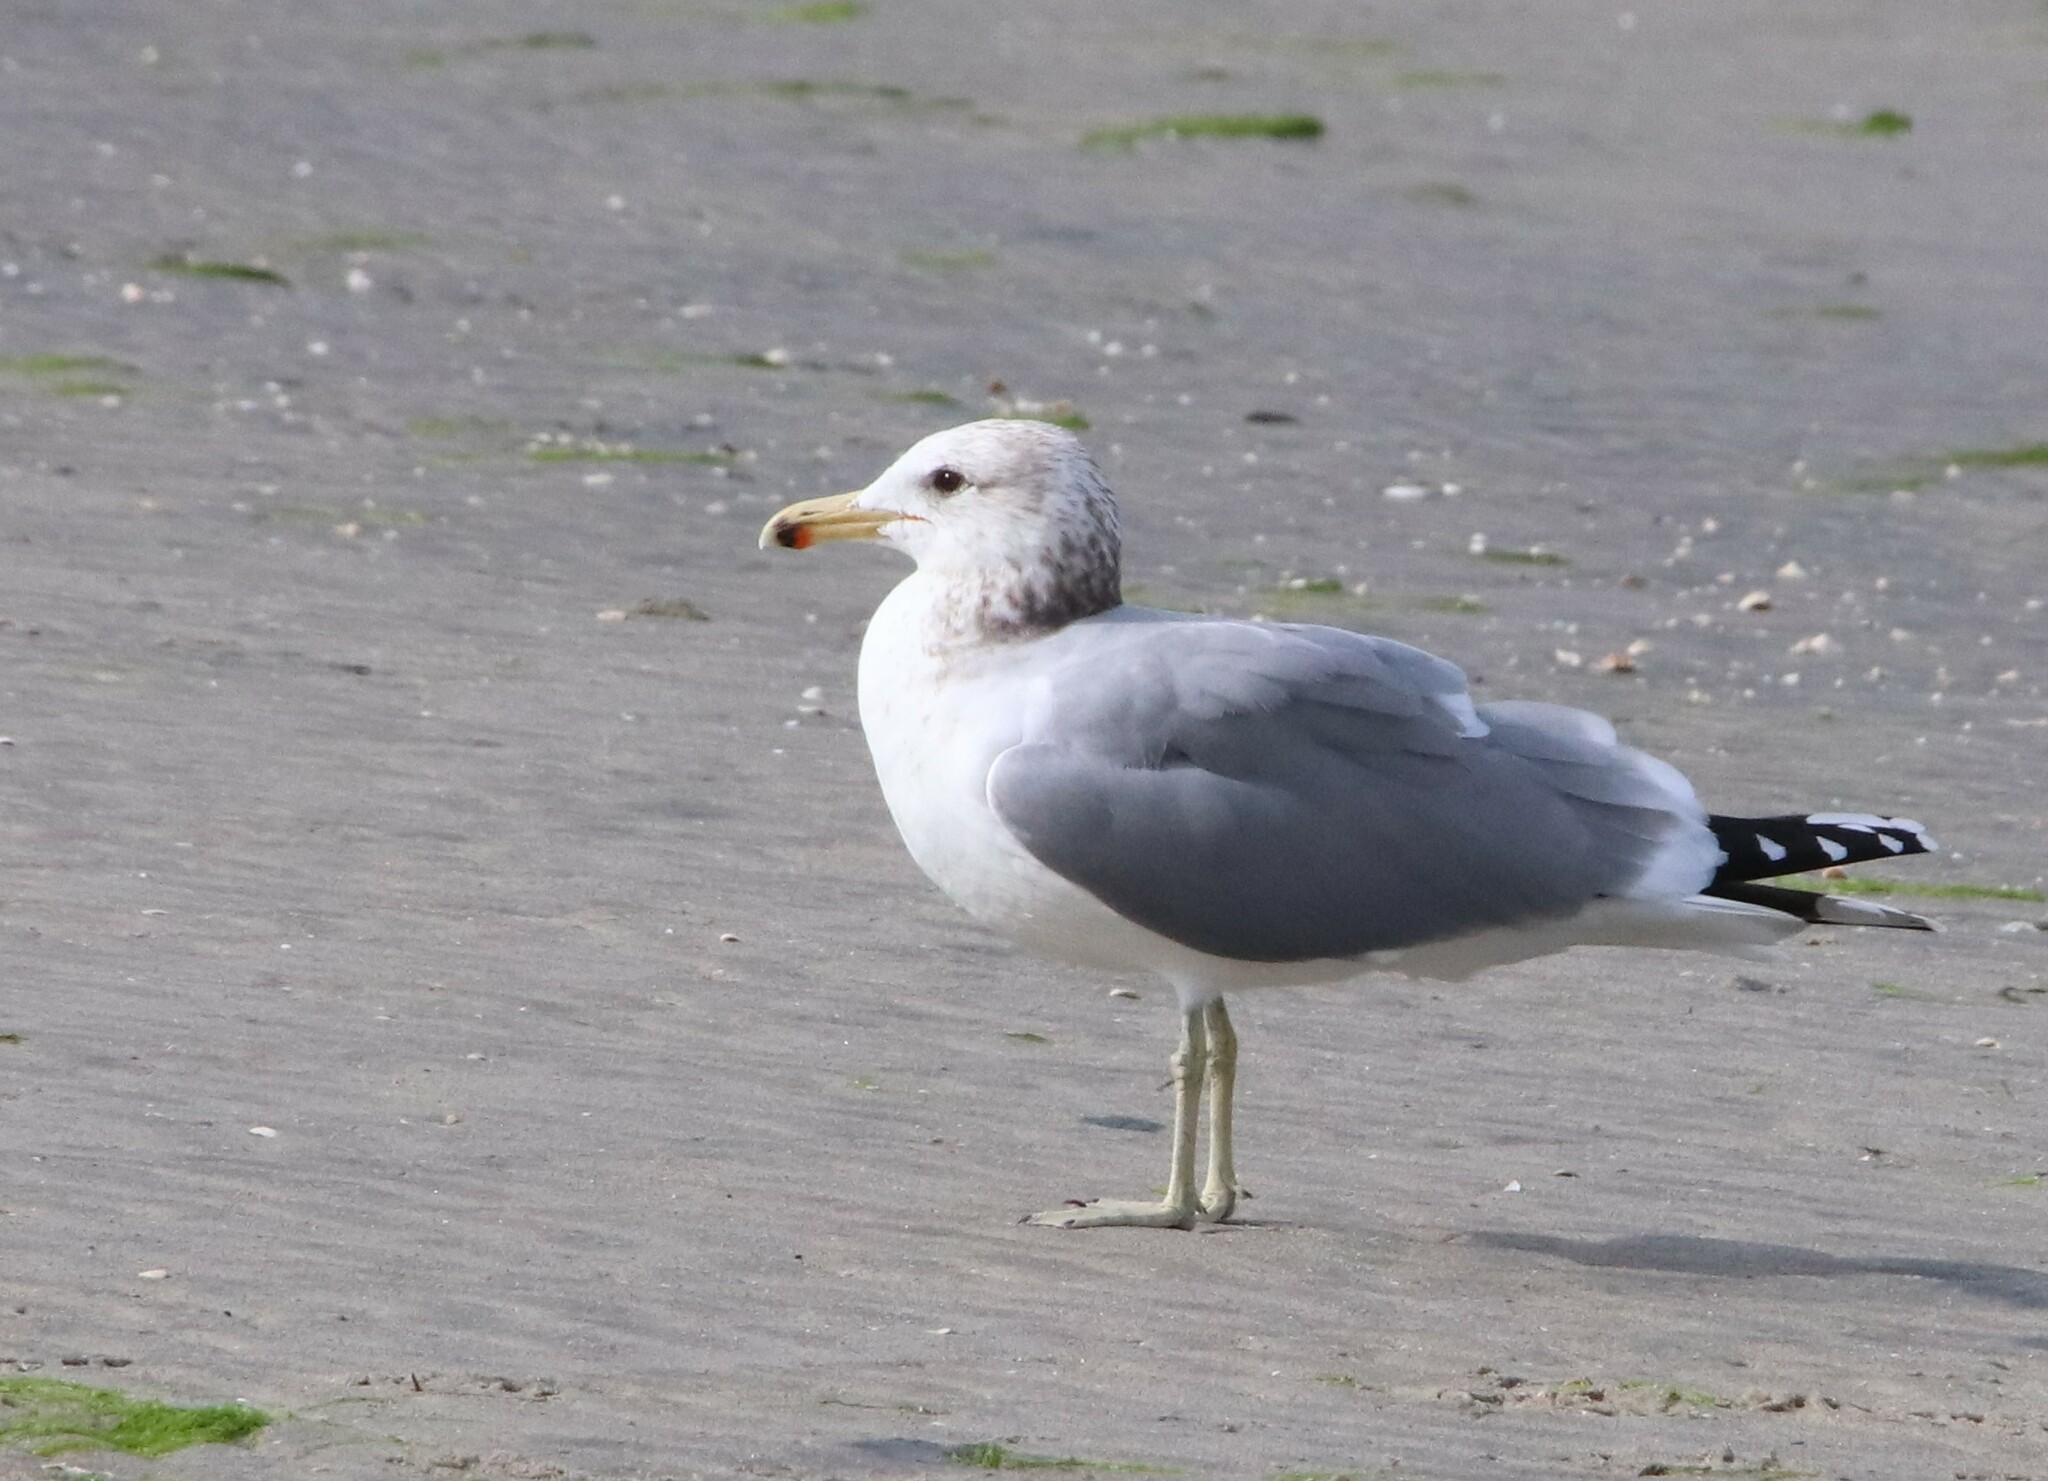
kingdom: Animalia
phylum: Chordata
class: Aves
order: Charadriiformes
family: Laridae
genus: Larus
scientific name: Larus californicus
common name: California gull
